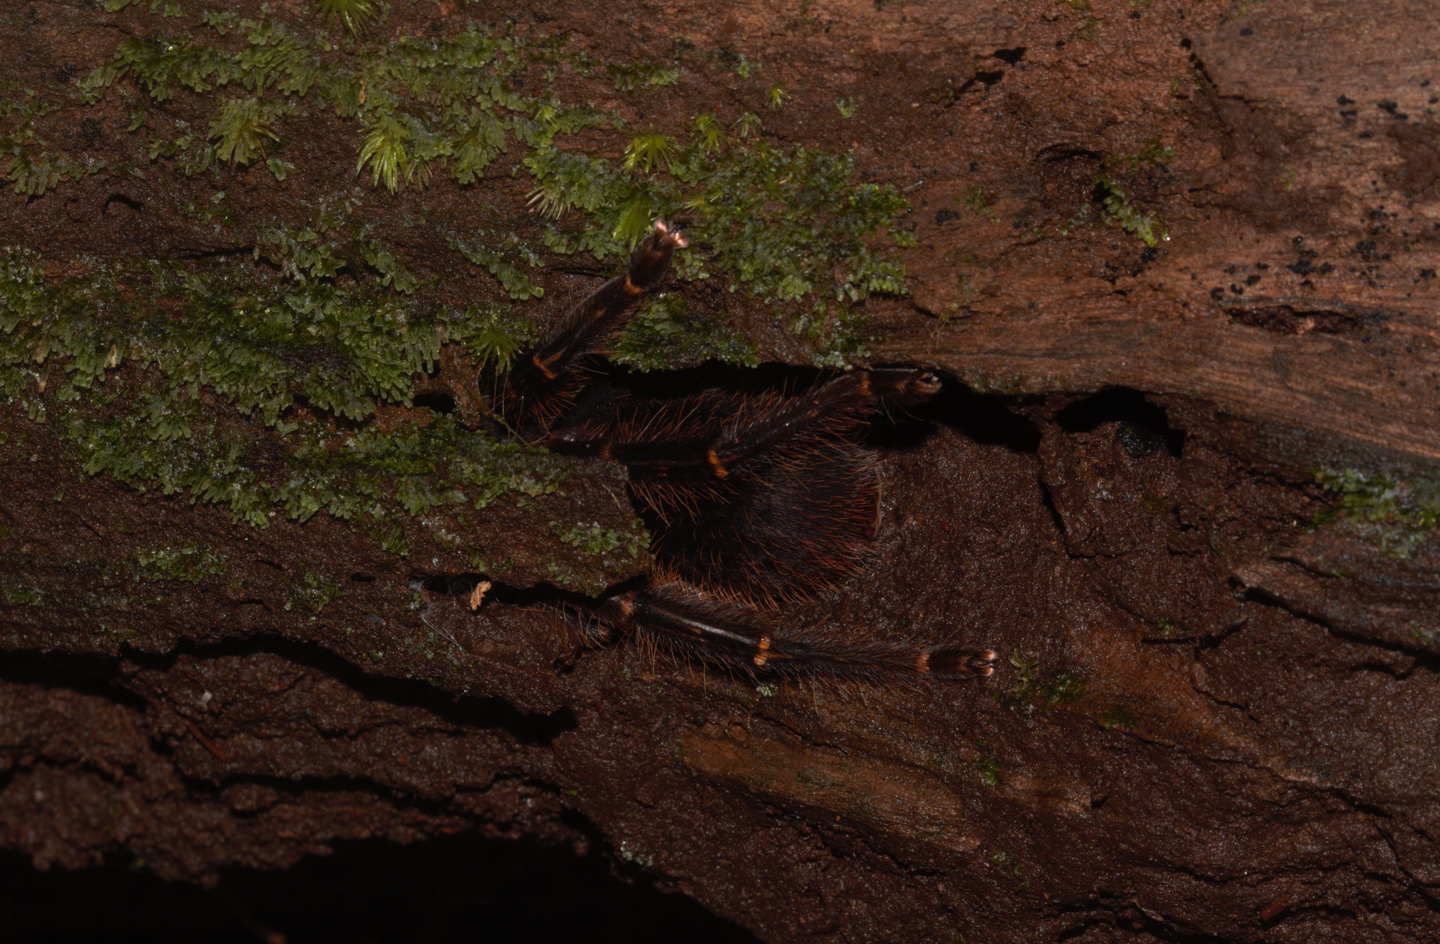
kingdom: Animalia
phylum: Arthropoda
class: Arachnida
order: Araneae
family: Theraphosidae
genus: Ephebopus
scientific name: Ephebopus rufescens
